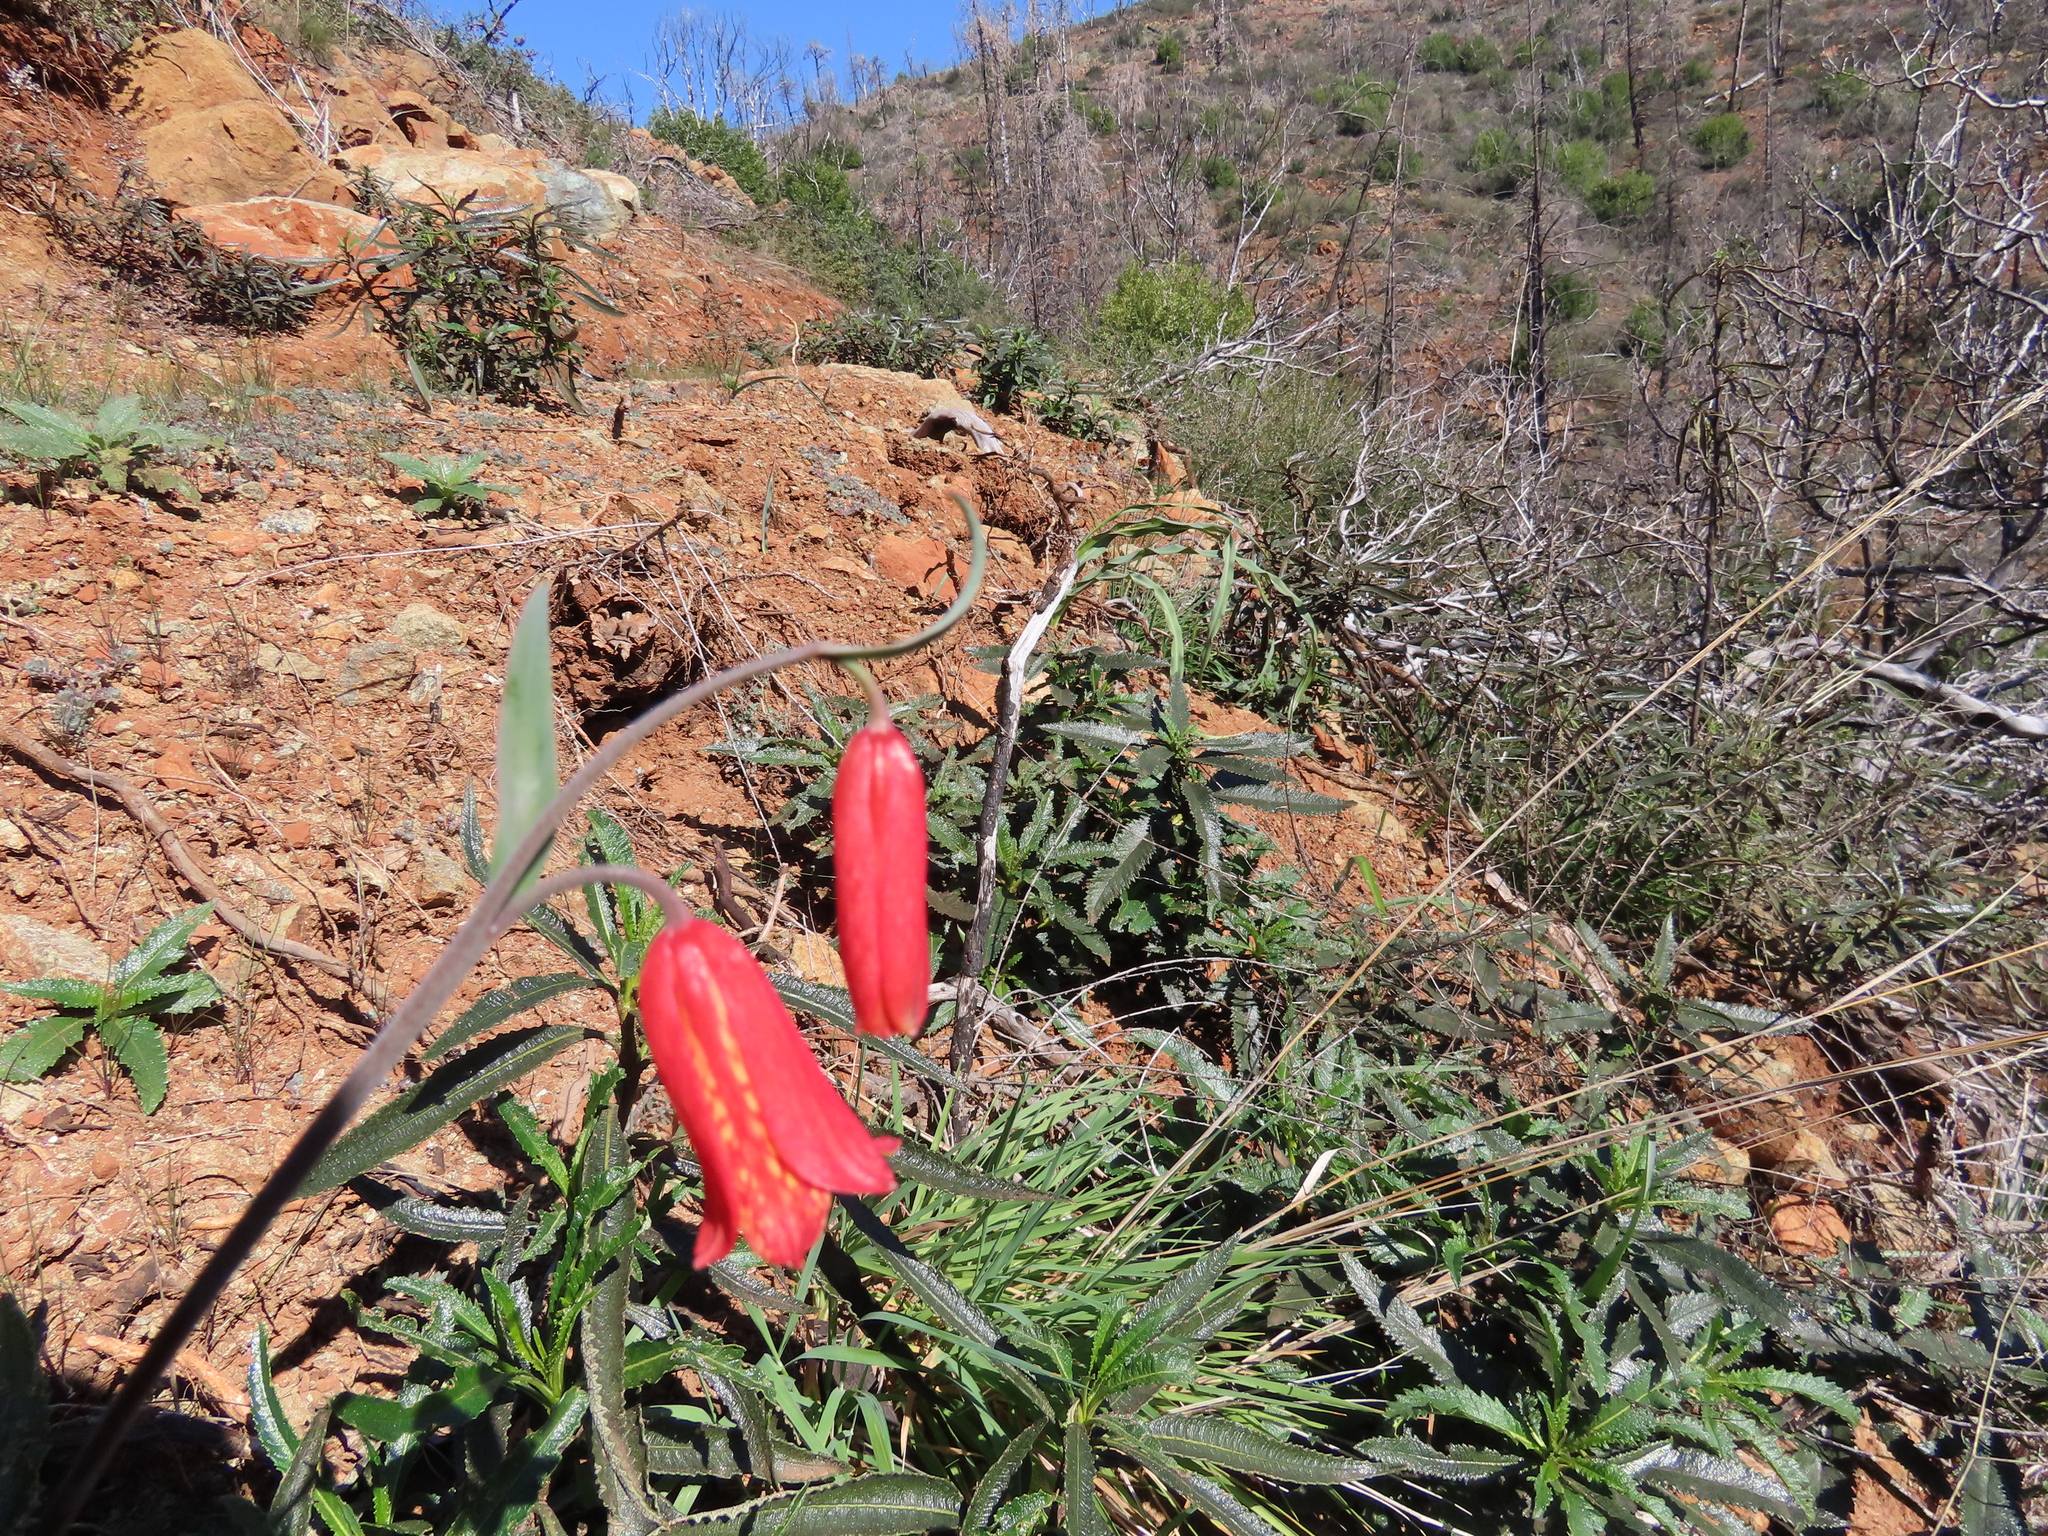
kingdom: Plantae
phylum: Tracheophyta
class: Liliopsida
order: Liliales
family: Liliaceae
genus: Fritillaria
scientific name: Fritillaria recurva
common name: Scarlet fritillary
